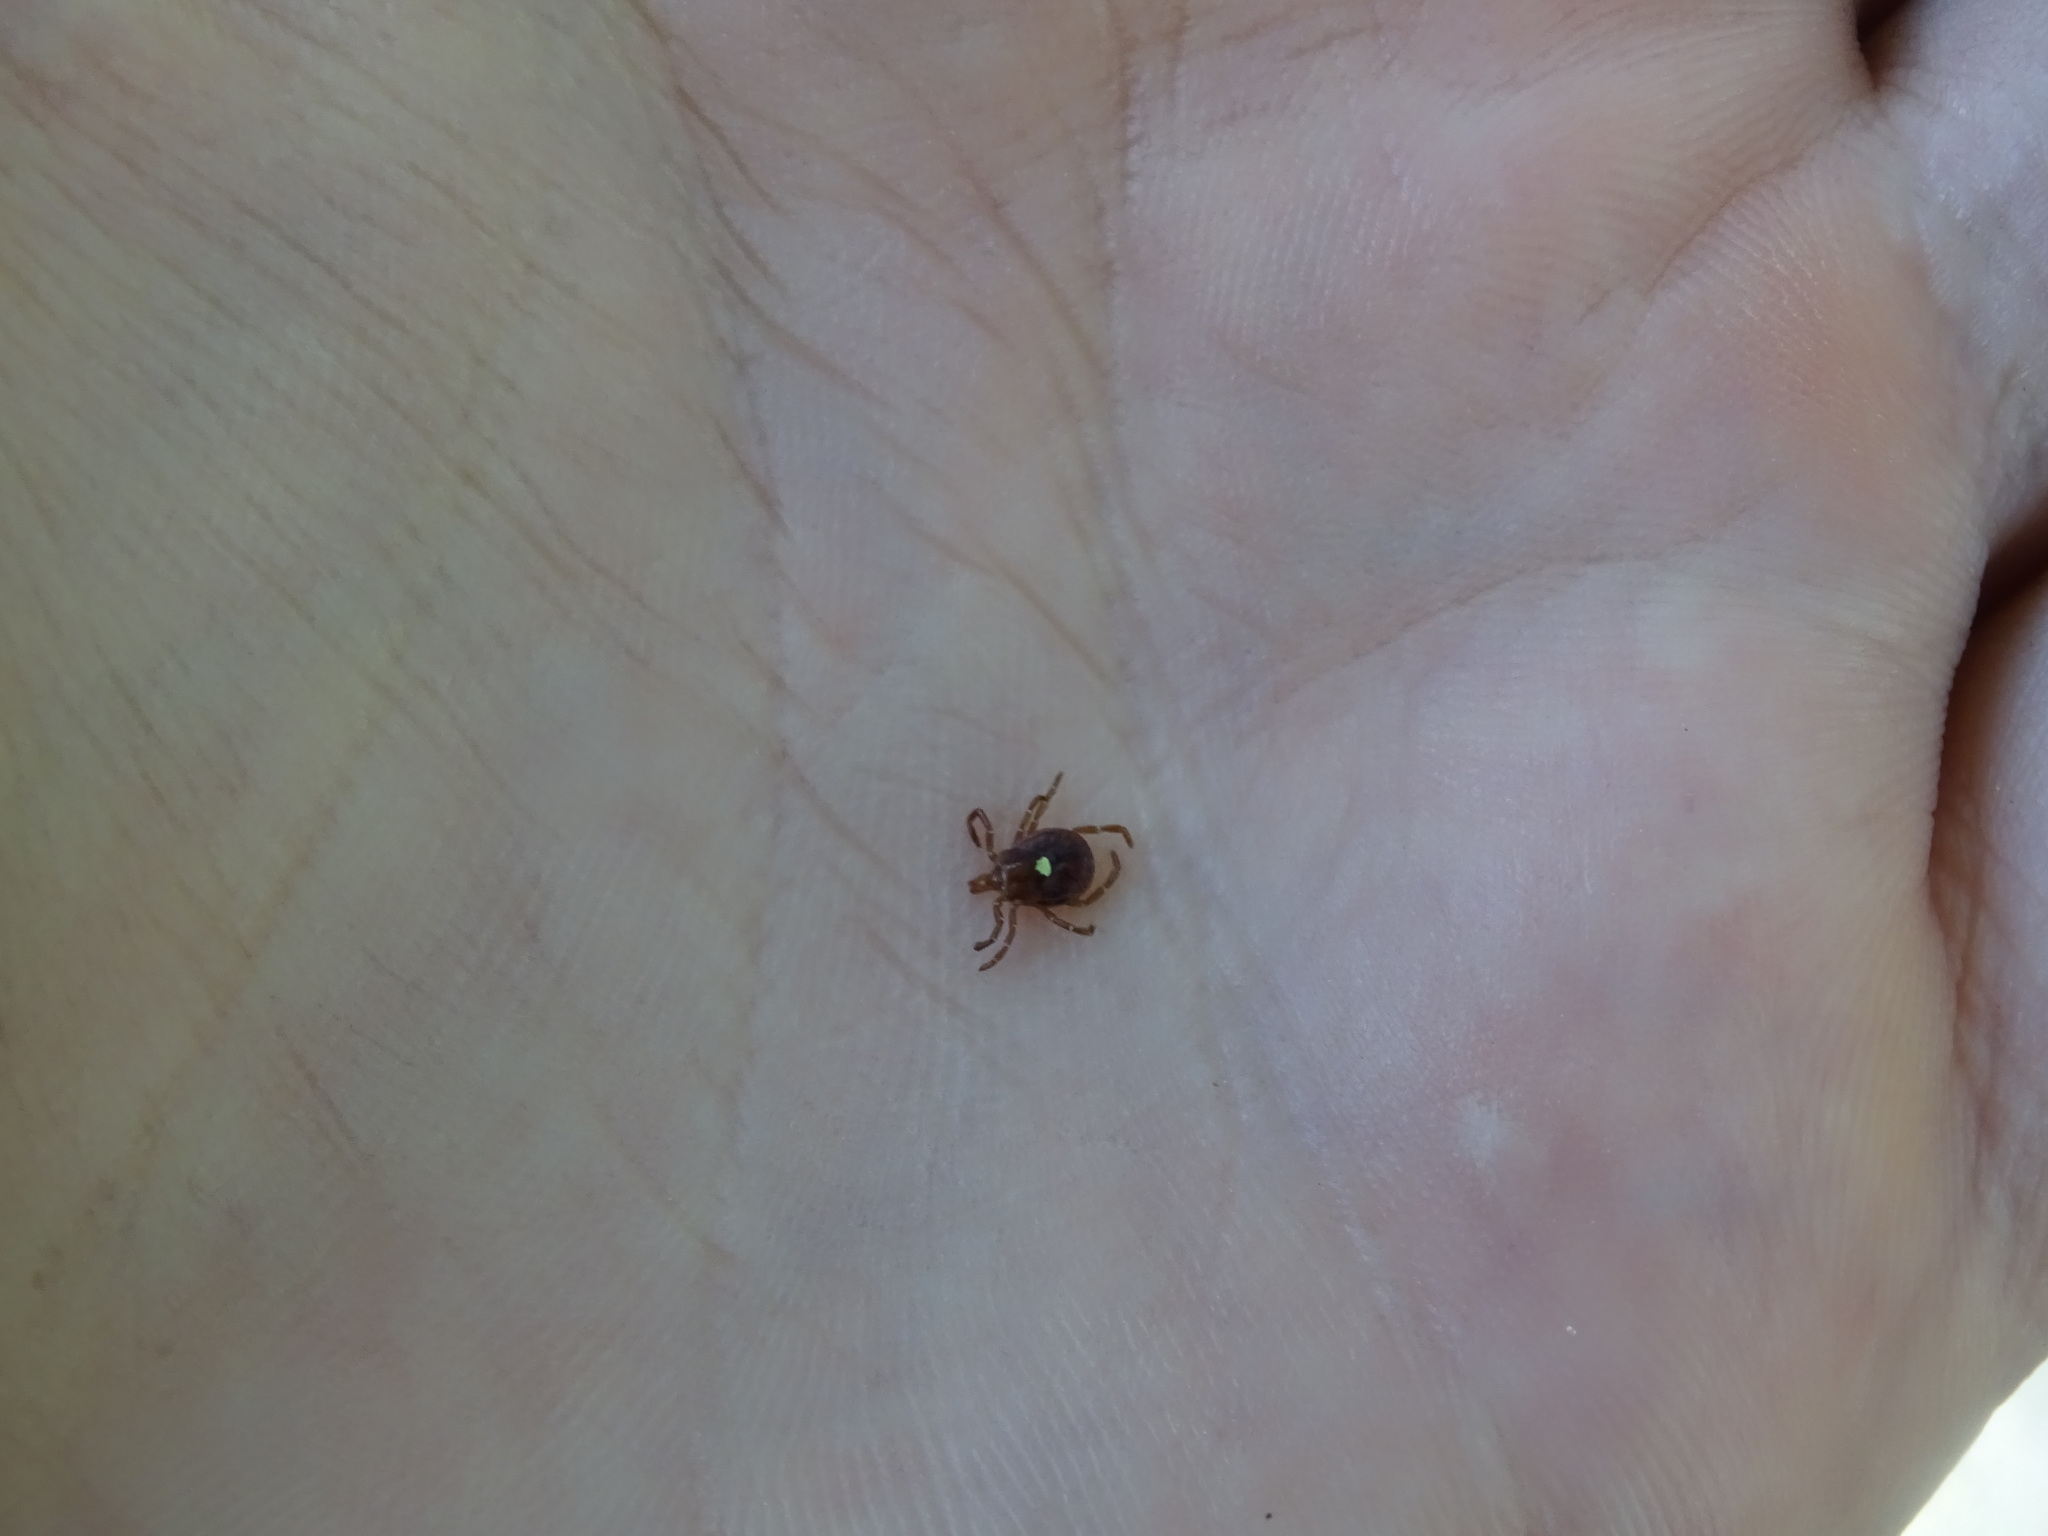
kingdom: Animalia
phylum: Arthropoda
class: Arachnida
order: Ixodida
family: Ixodidae
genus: Amblyomma
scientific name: Amblyomma americanum
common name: Lone star tick
